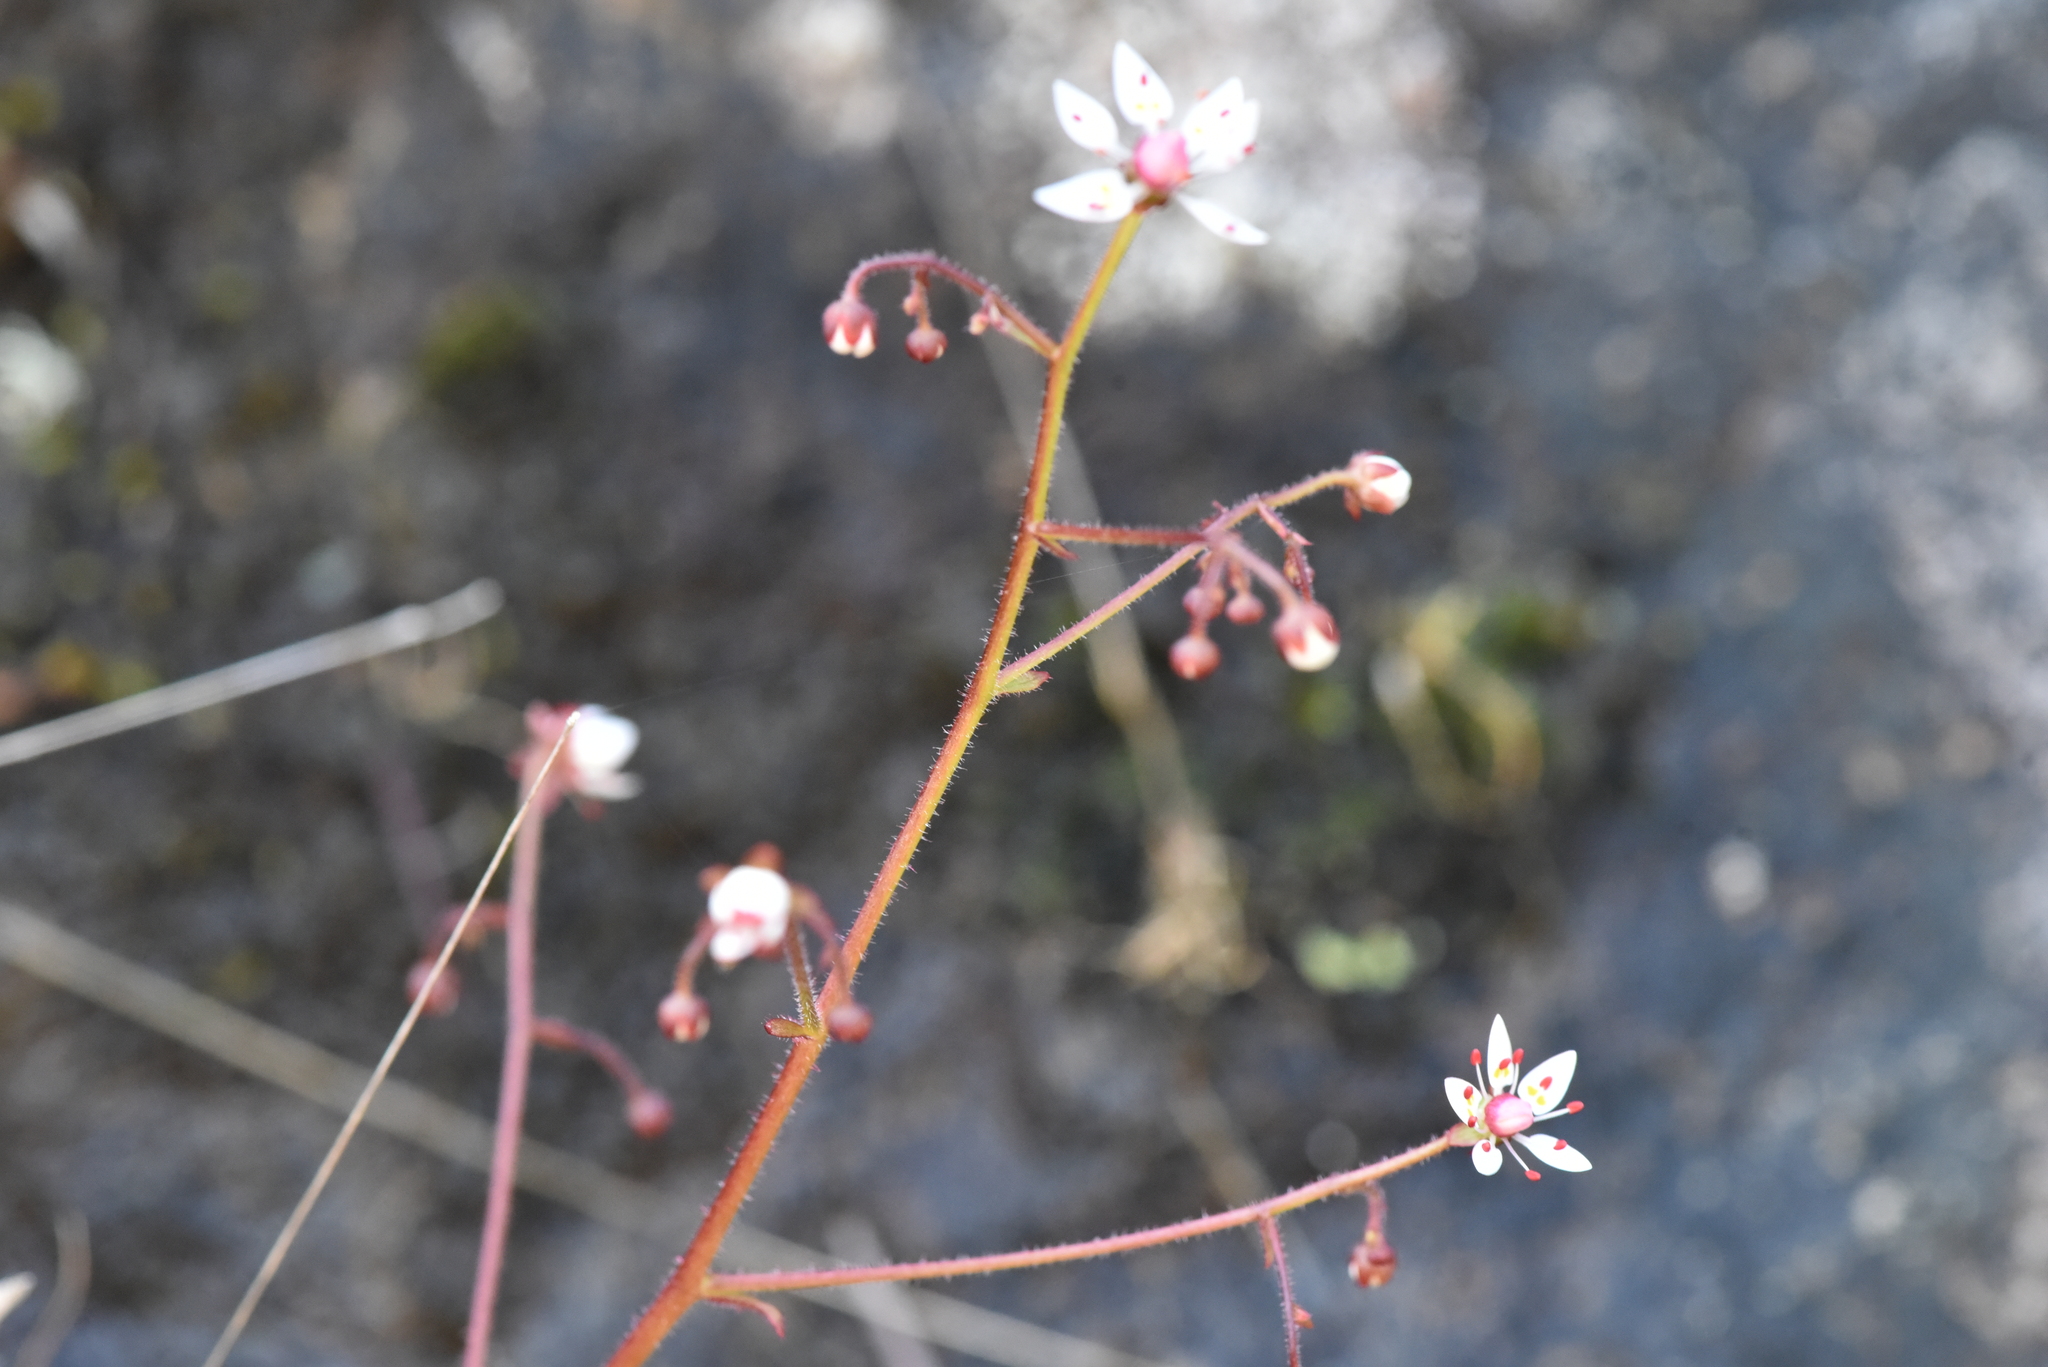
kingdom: Plantae
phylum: Tracheophyta
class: Magnoliopsida
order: Saxifragales
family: Saxifragaceae
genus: Micranthes
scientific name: Micranthes ferruginea
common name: Rusty saxifrage
